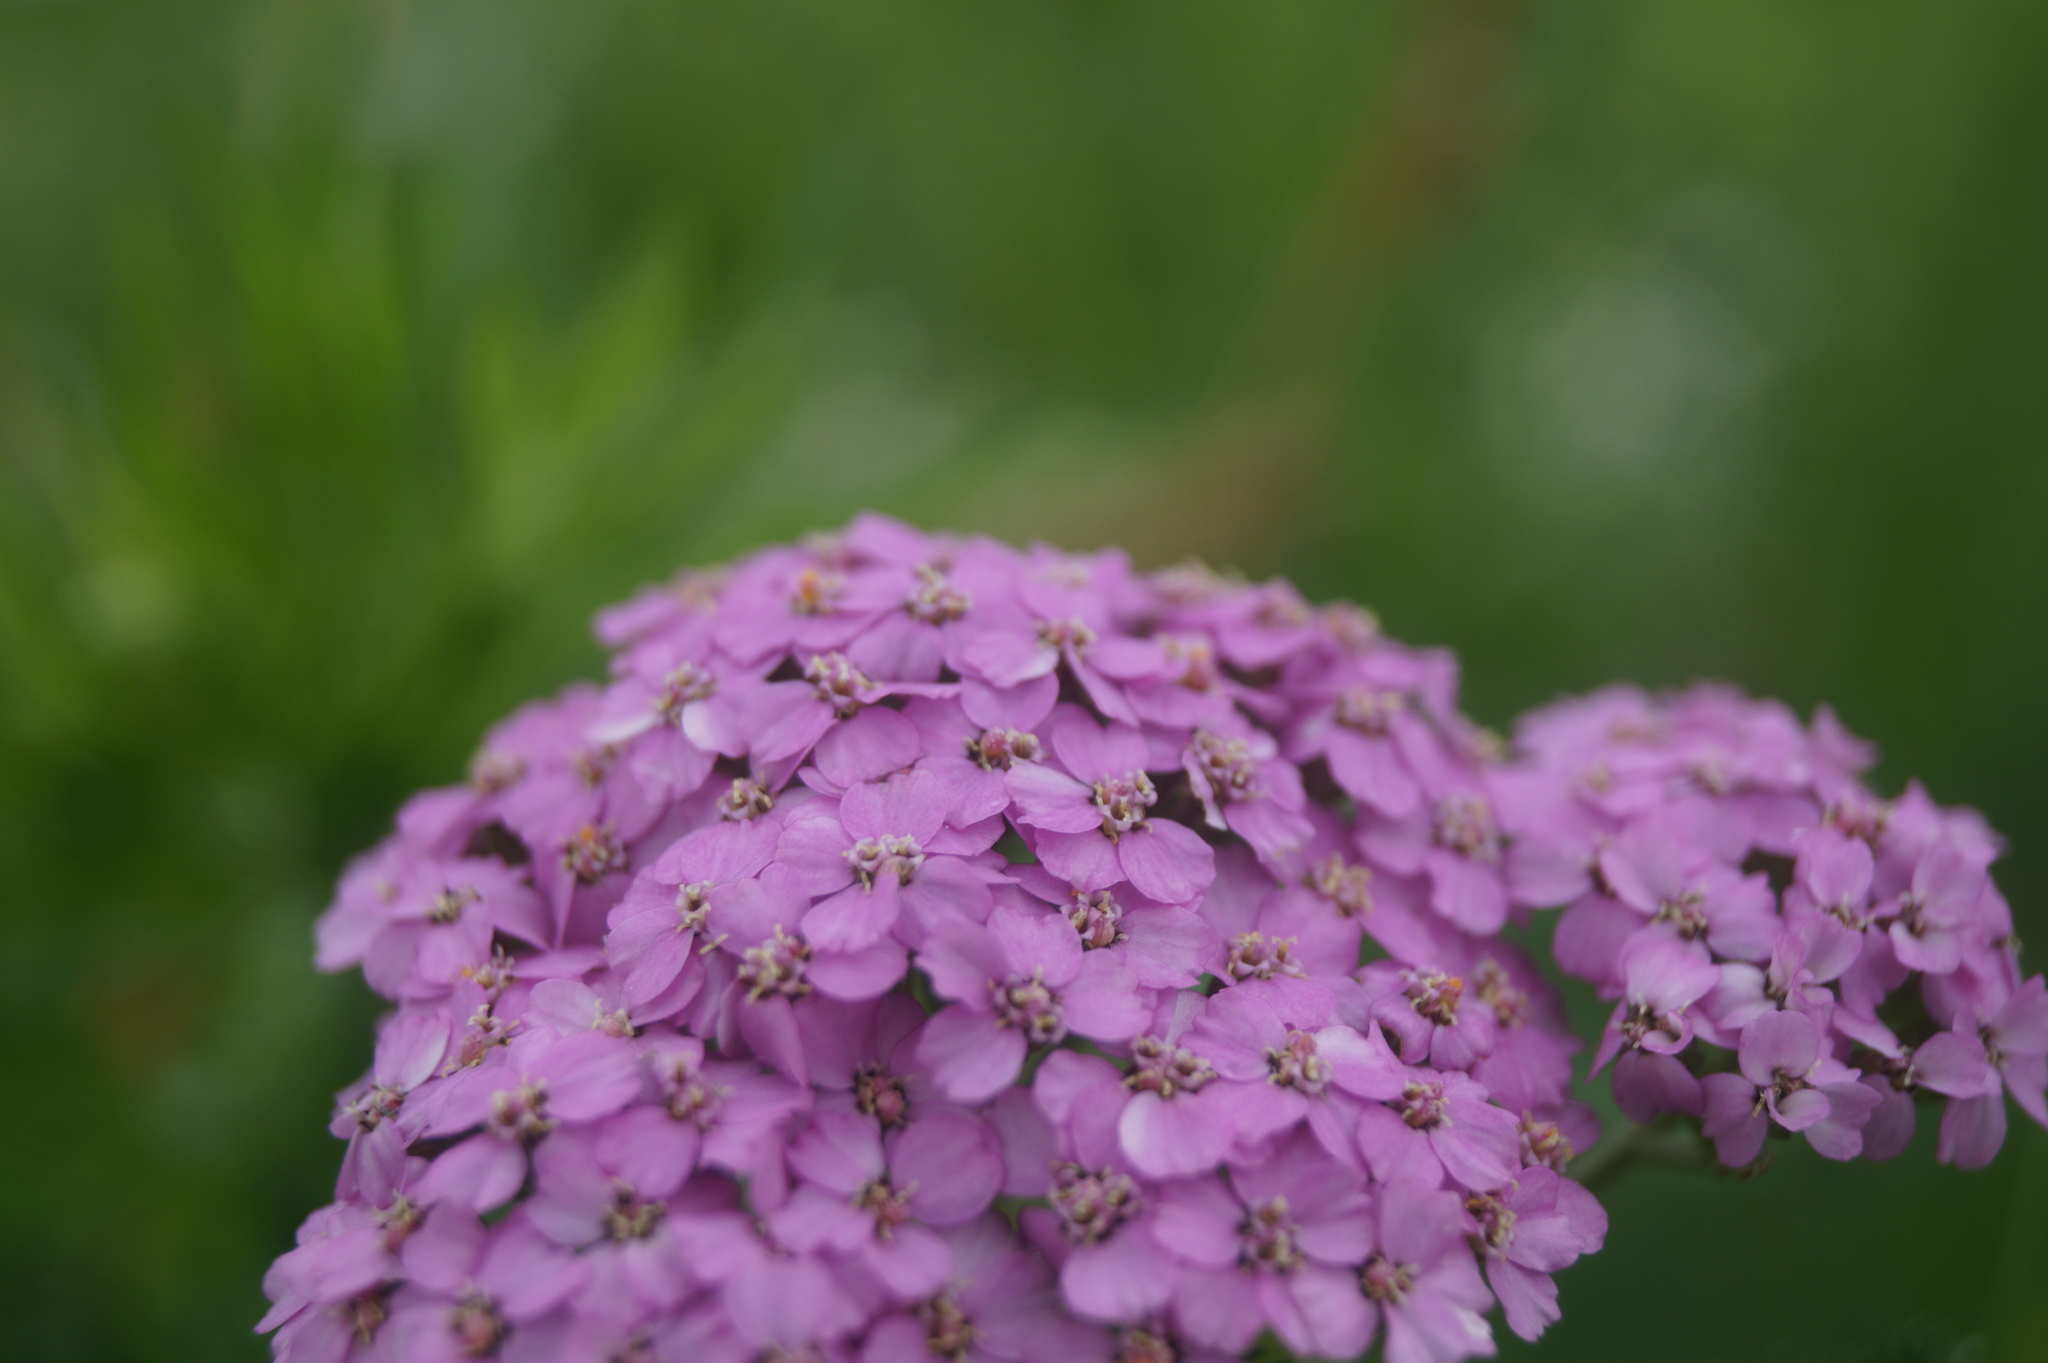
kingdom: Plantae
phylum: Tracheophyta
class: Magnoliopsida
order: Asterales
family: Asteraceae
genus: Achillea
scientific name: Achillea millefolium
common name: Yarrow
